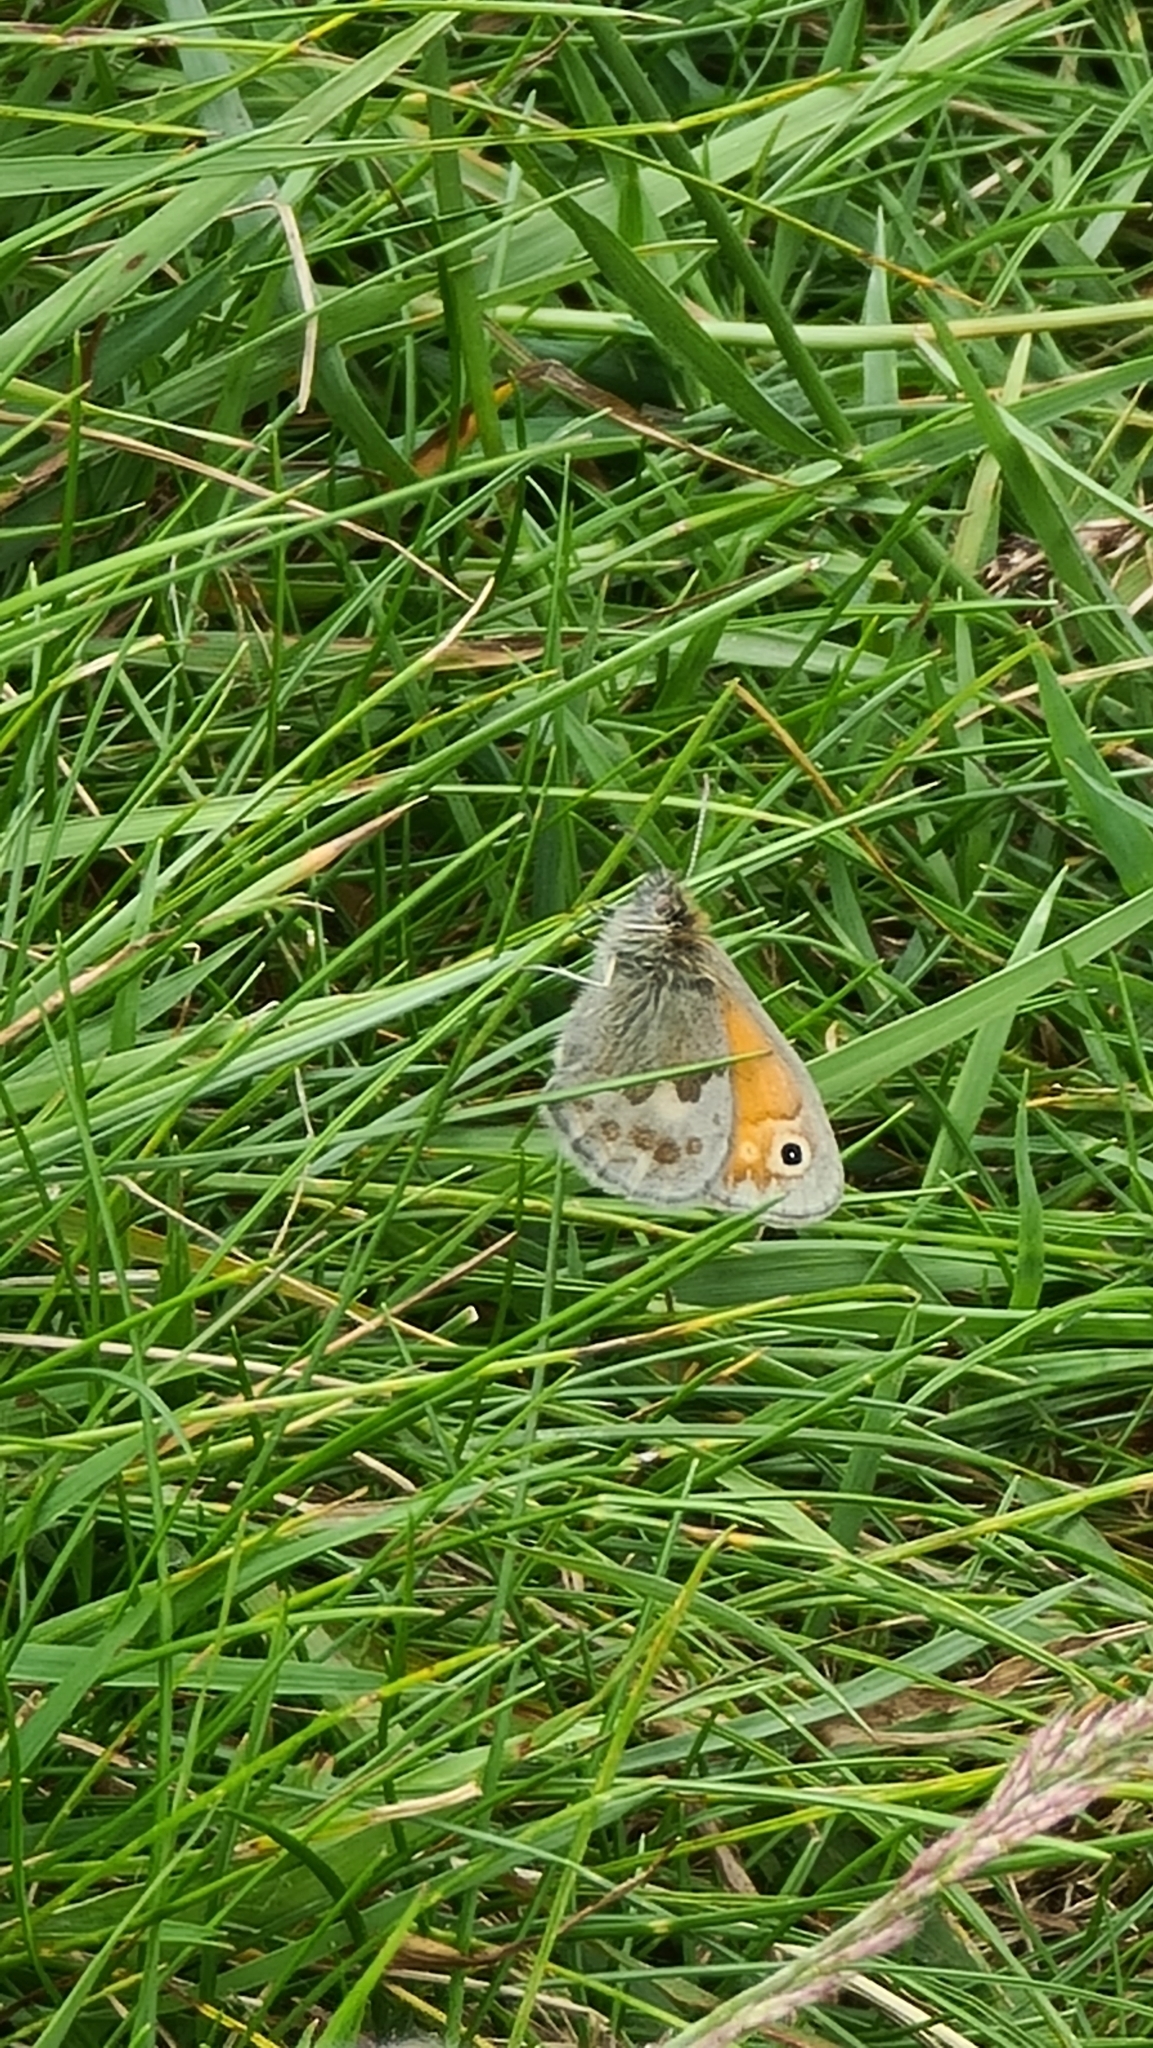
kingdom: Animalia
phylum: Arthropoda
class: Insecta
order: Lepidoptera
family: Nymphalidae
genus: Coenonympha
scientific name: Coenonympha pamphilus
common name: Small heath
